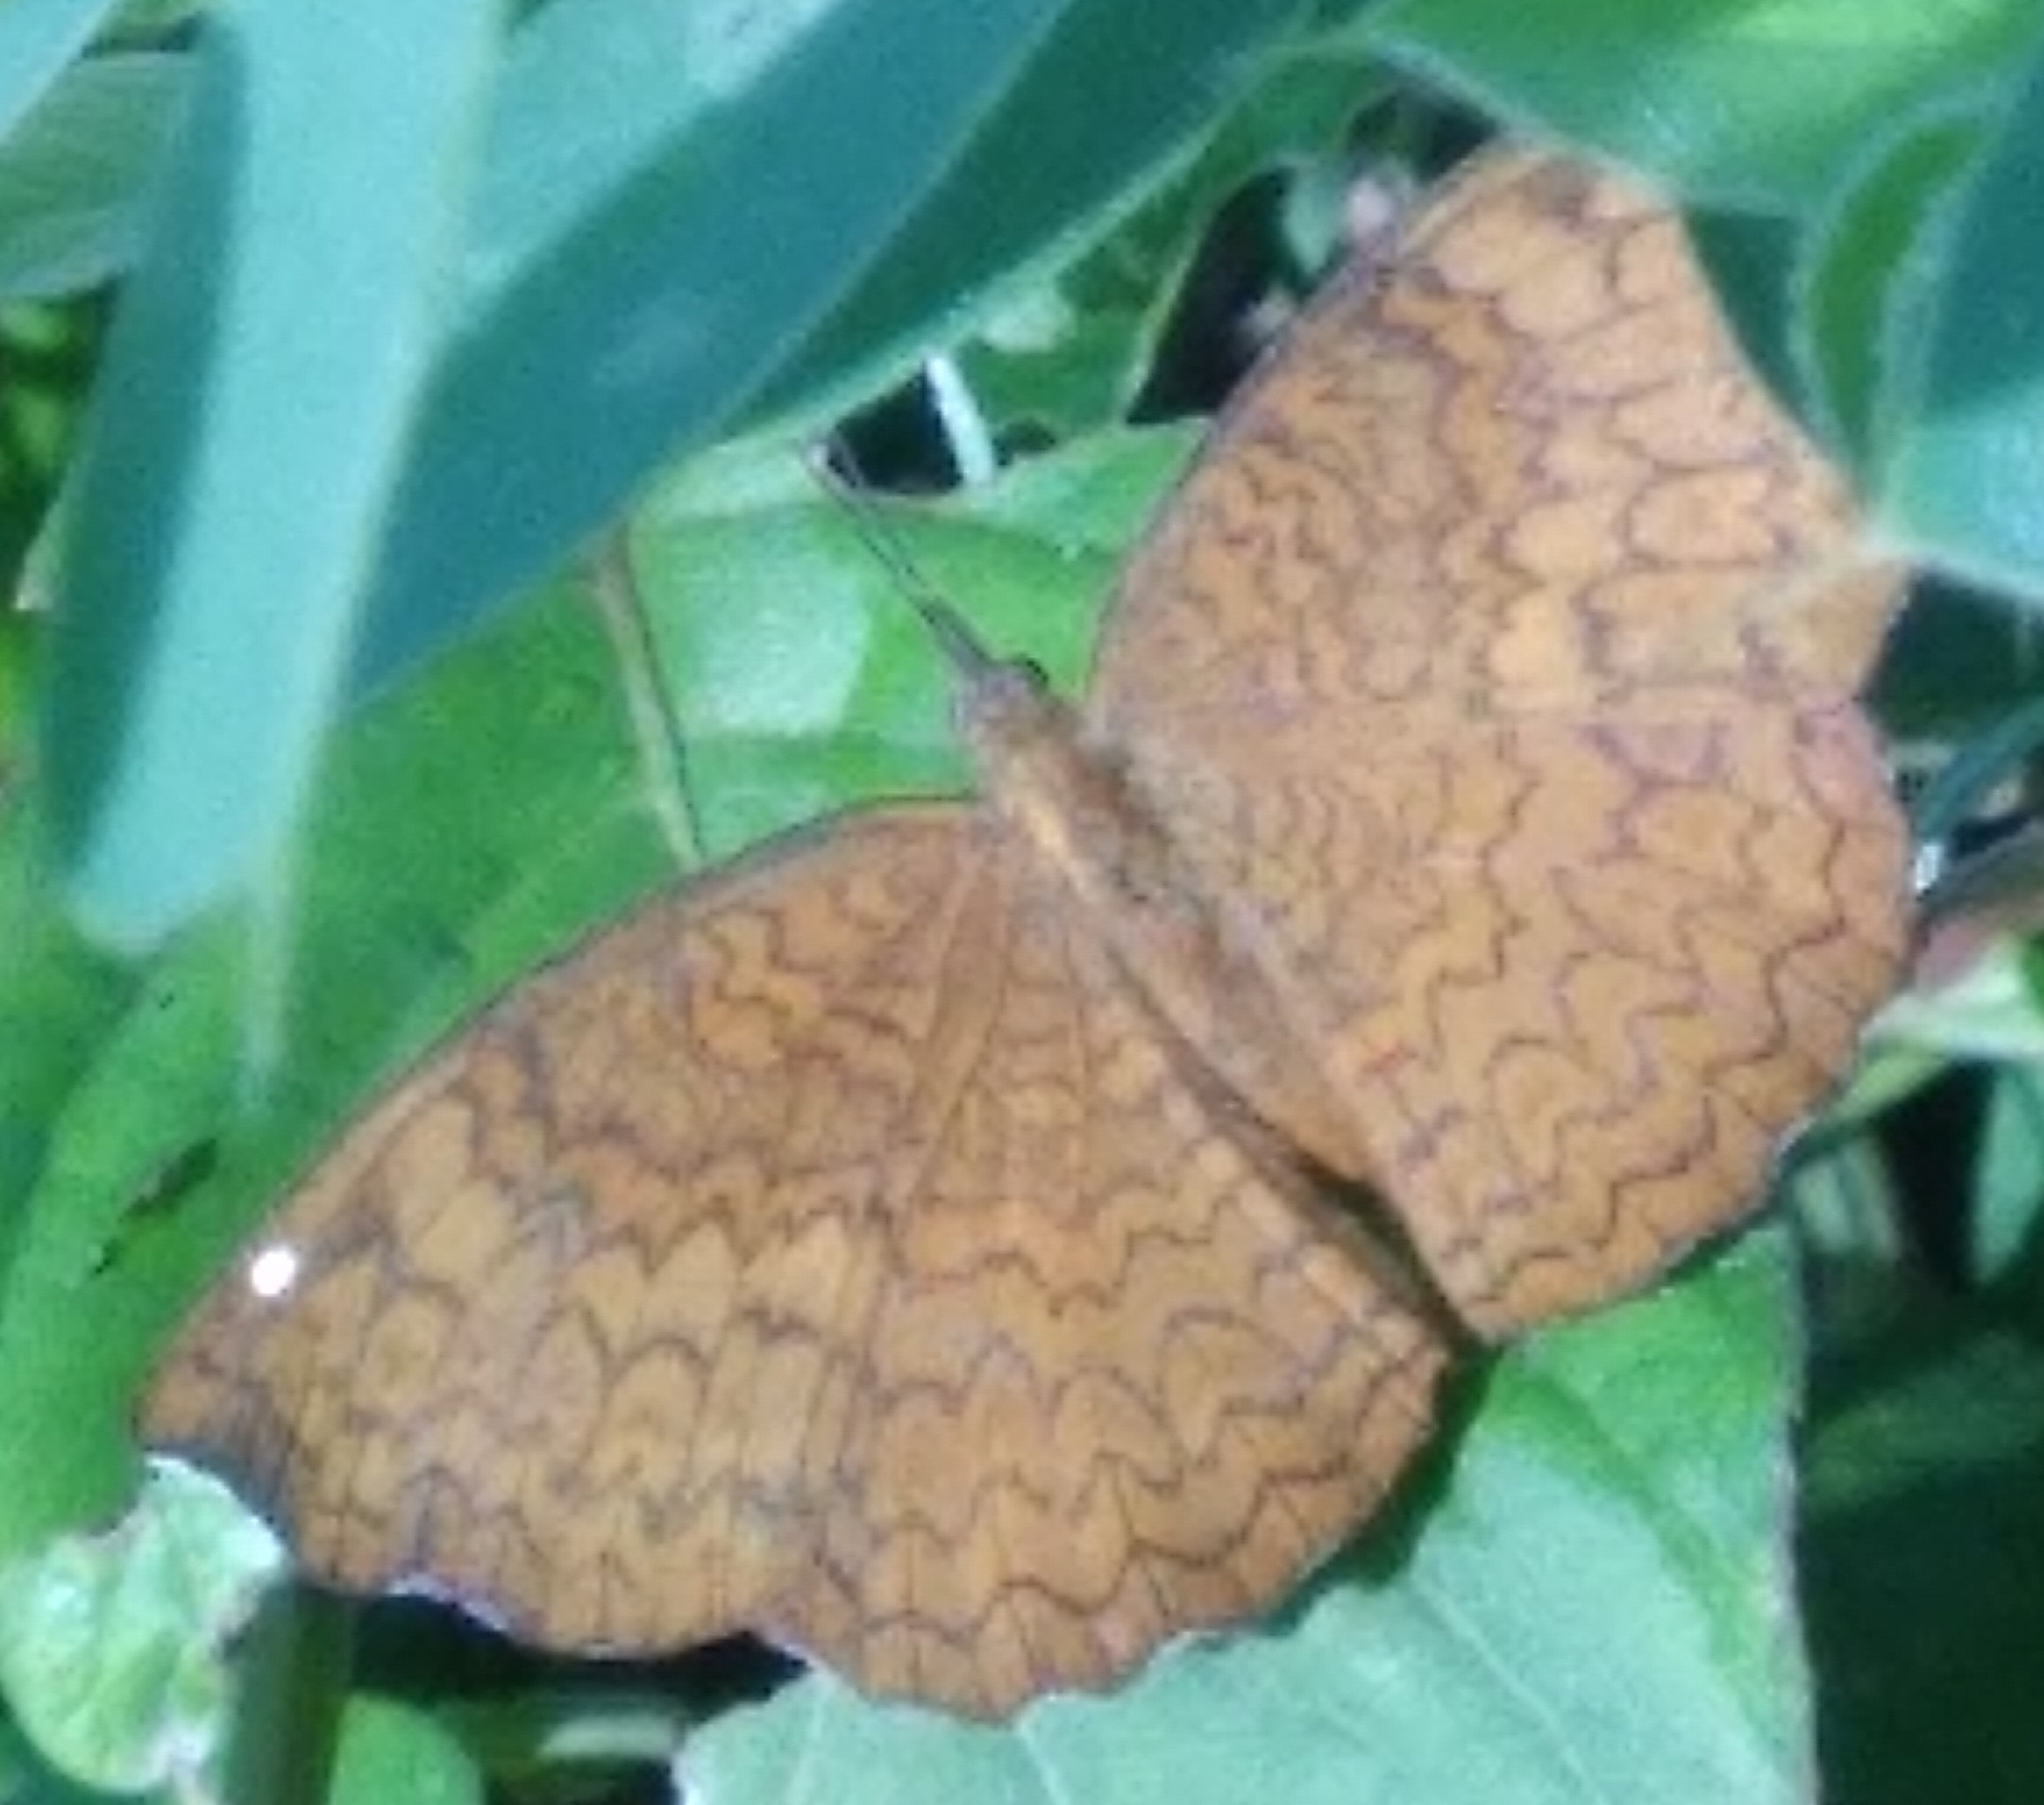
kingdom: Animalia
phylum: Arthropoda
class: Insecta
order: Lepidoptera
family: Nymphalidae
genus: Ariadne
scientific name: Ariadne merione
